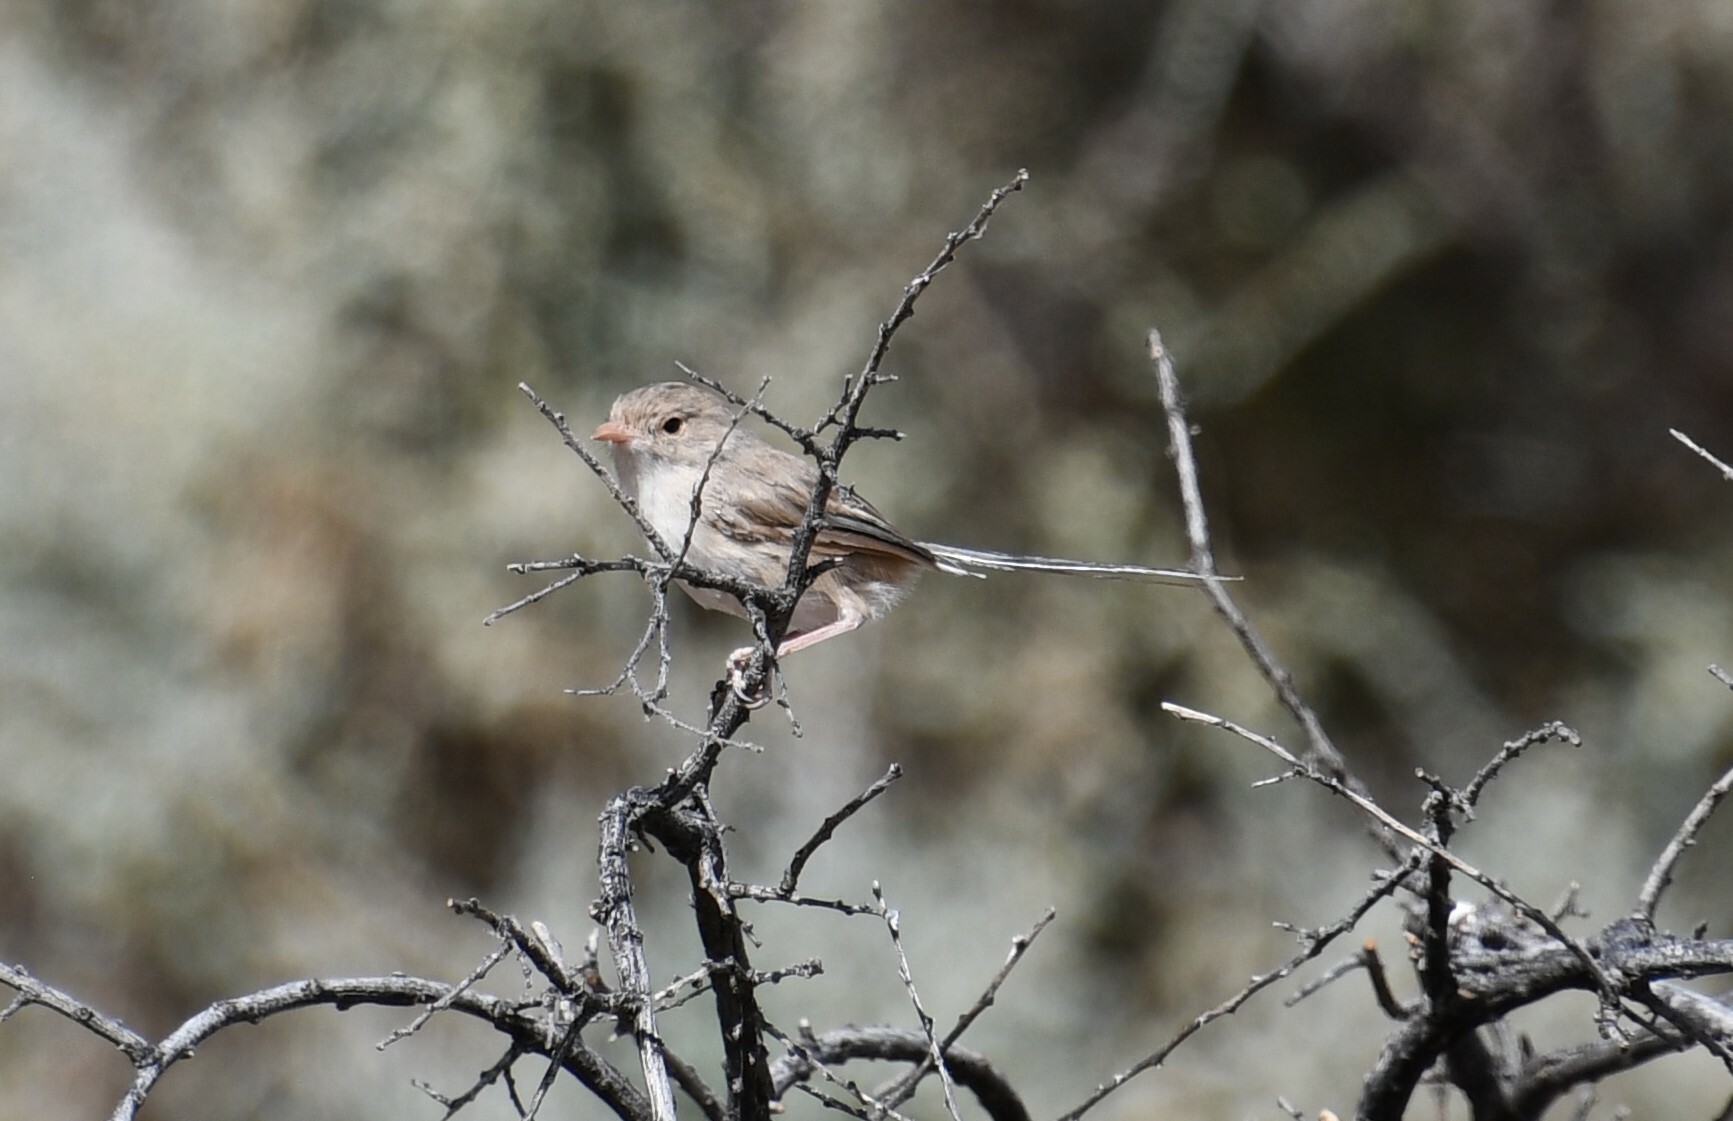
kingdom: Animalia
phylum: Chordata
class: Aves
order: Passeriformes
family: Maluridae
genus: Malurus
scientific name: Malurus leucopterus
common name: White-winged fairywren
